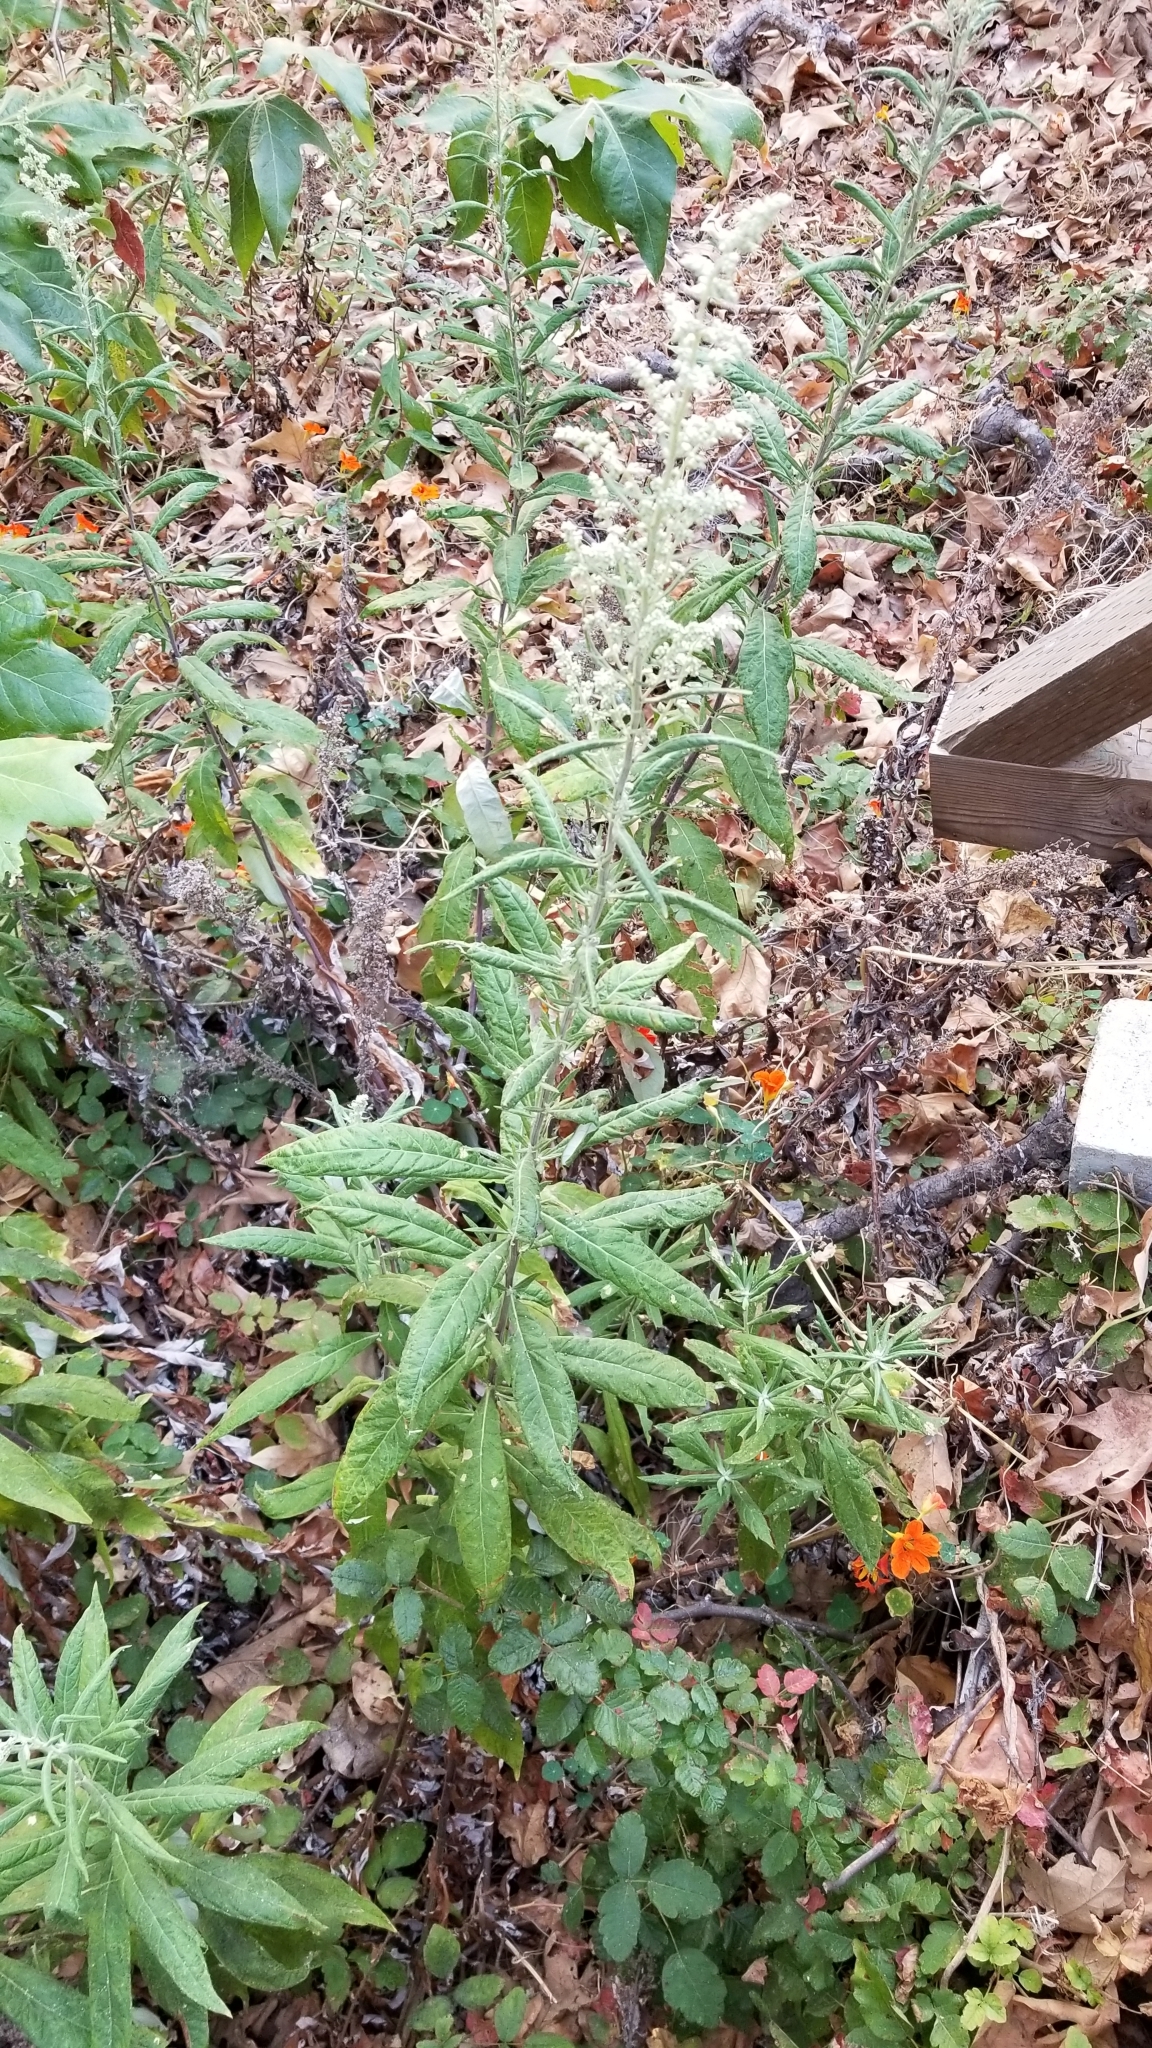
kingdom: Plantae
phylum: Tracheophyta
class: Magnoliopsida
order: Asterales
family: Asteraceae
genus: Artemisia
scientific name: Artemisia douglasiana
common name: Northwest mugwort
